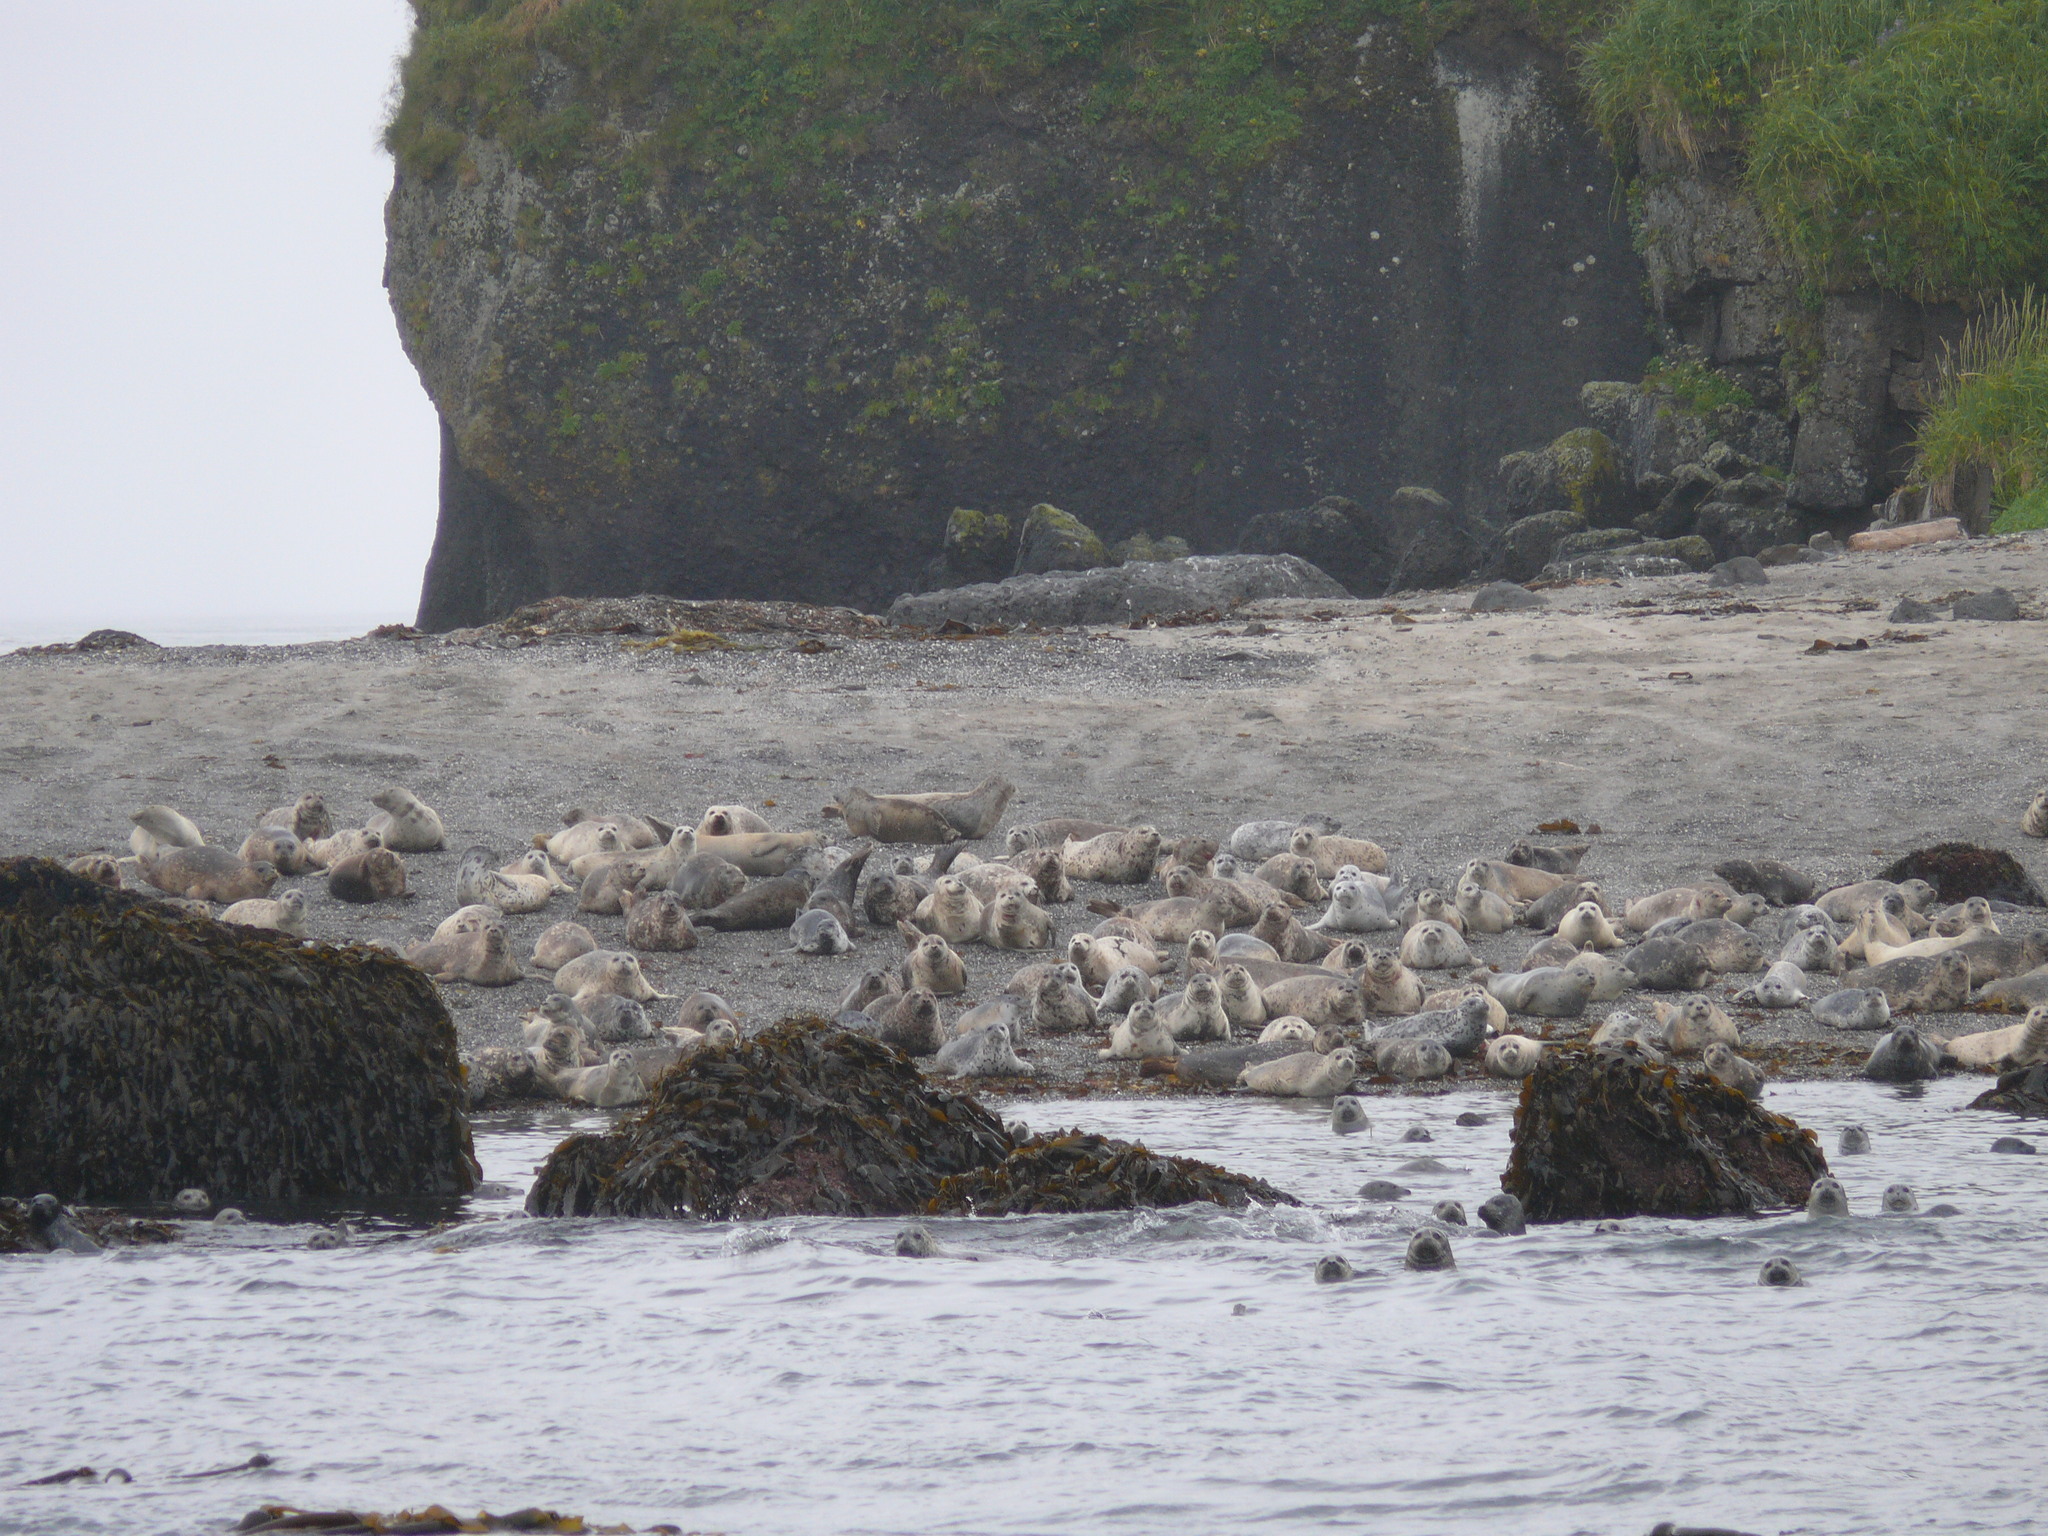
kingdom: Animalia
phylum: Chordata
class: Mammalia
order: Carnivora
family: Phocidae
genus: Phoca
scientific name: Phoca vitulina
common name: Harbor seal
